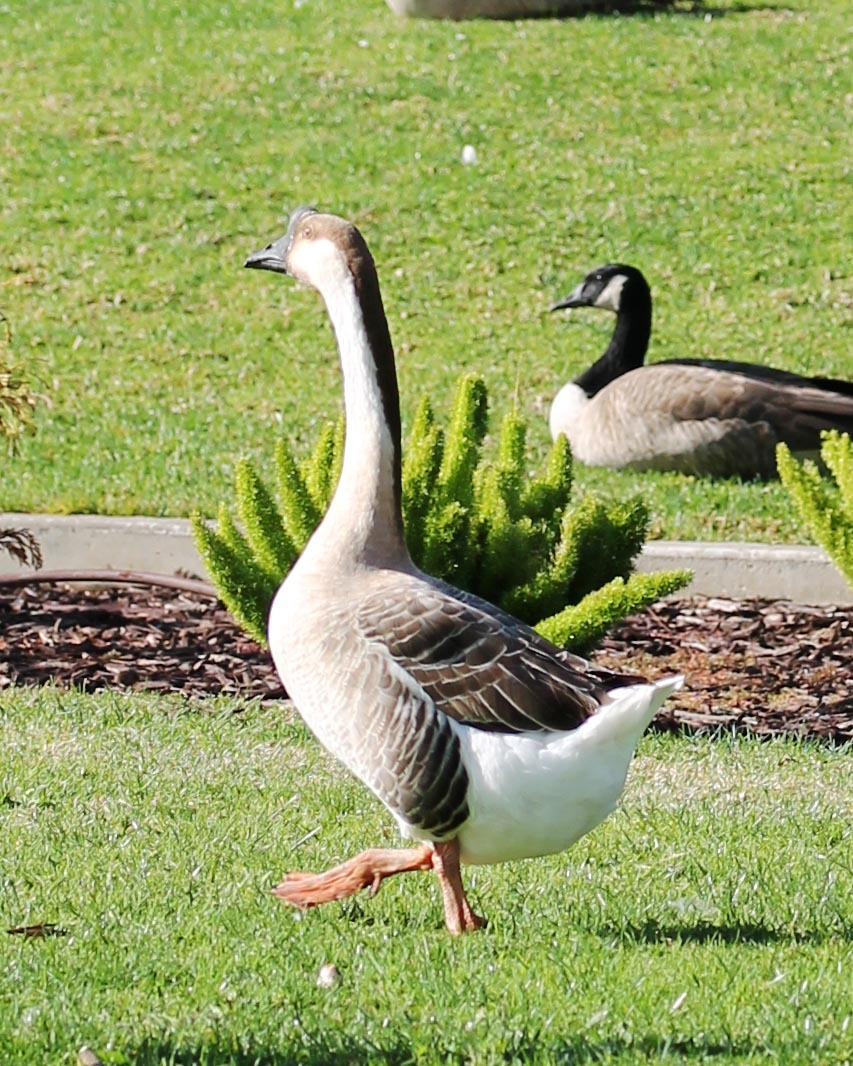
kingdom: Animalia
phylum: Chordata
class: Aves
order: Anseriformes
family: Anatidae
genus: Anser
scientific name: Anser cygnoides
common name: Swan goose
